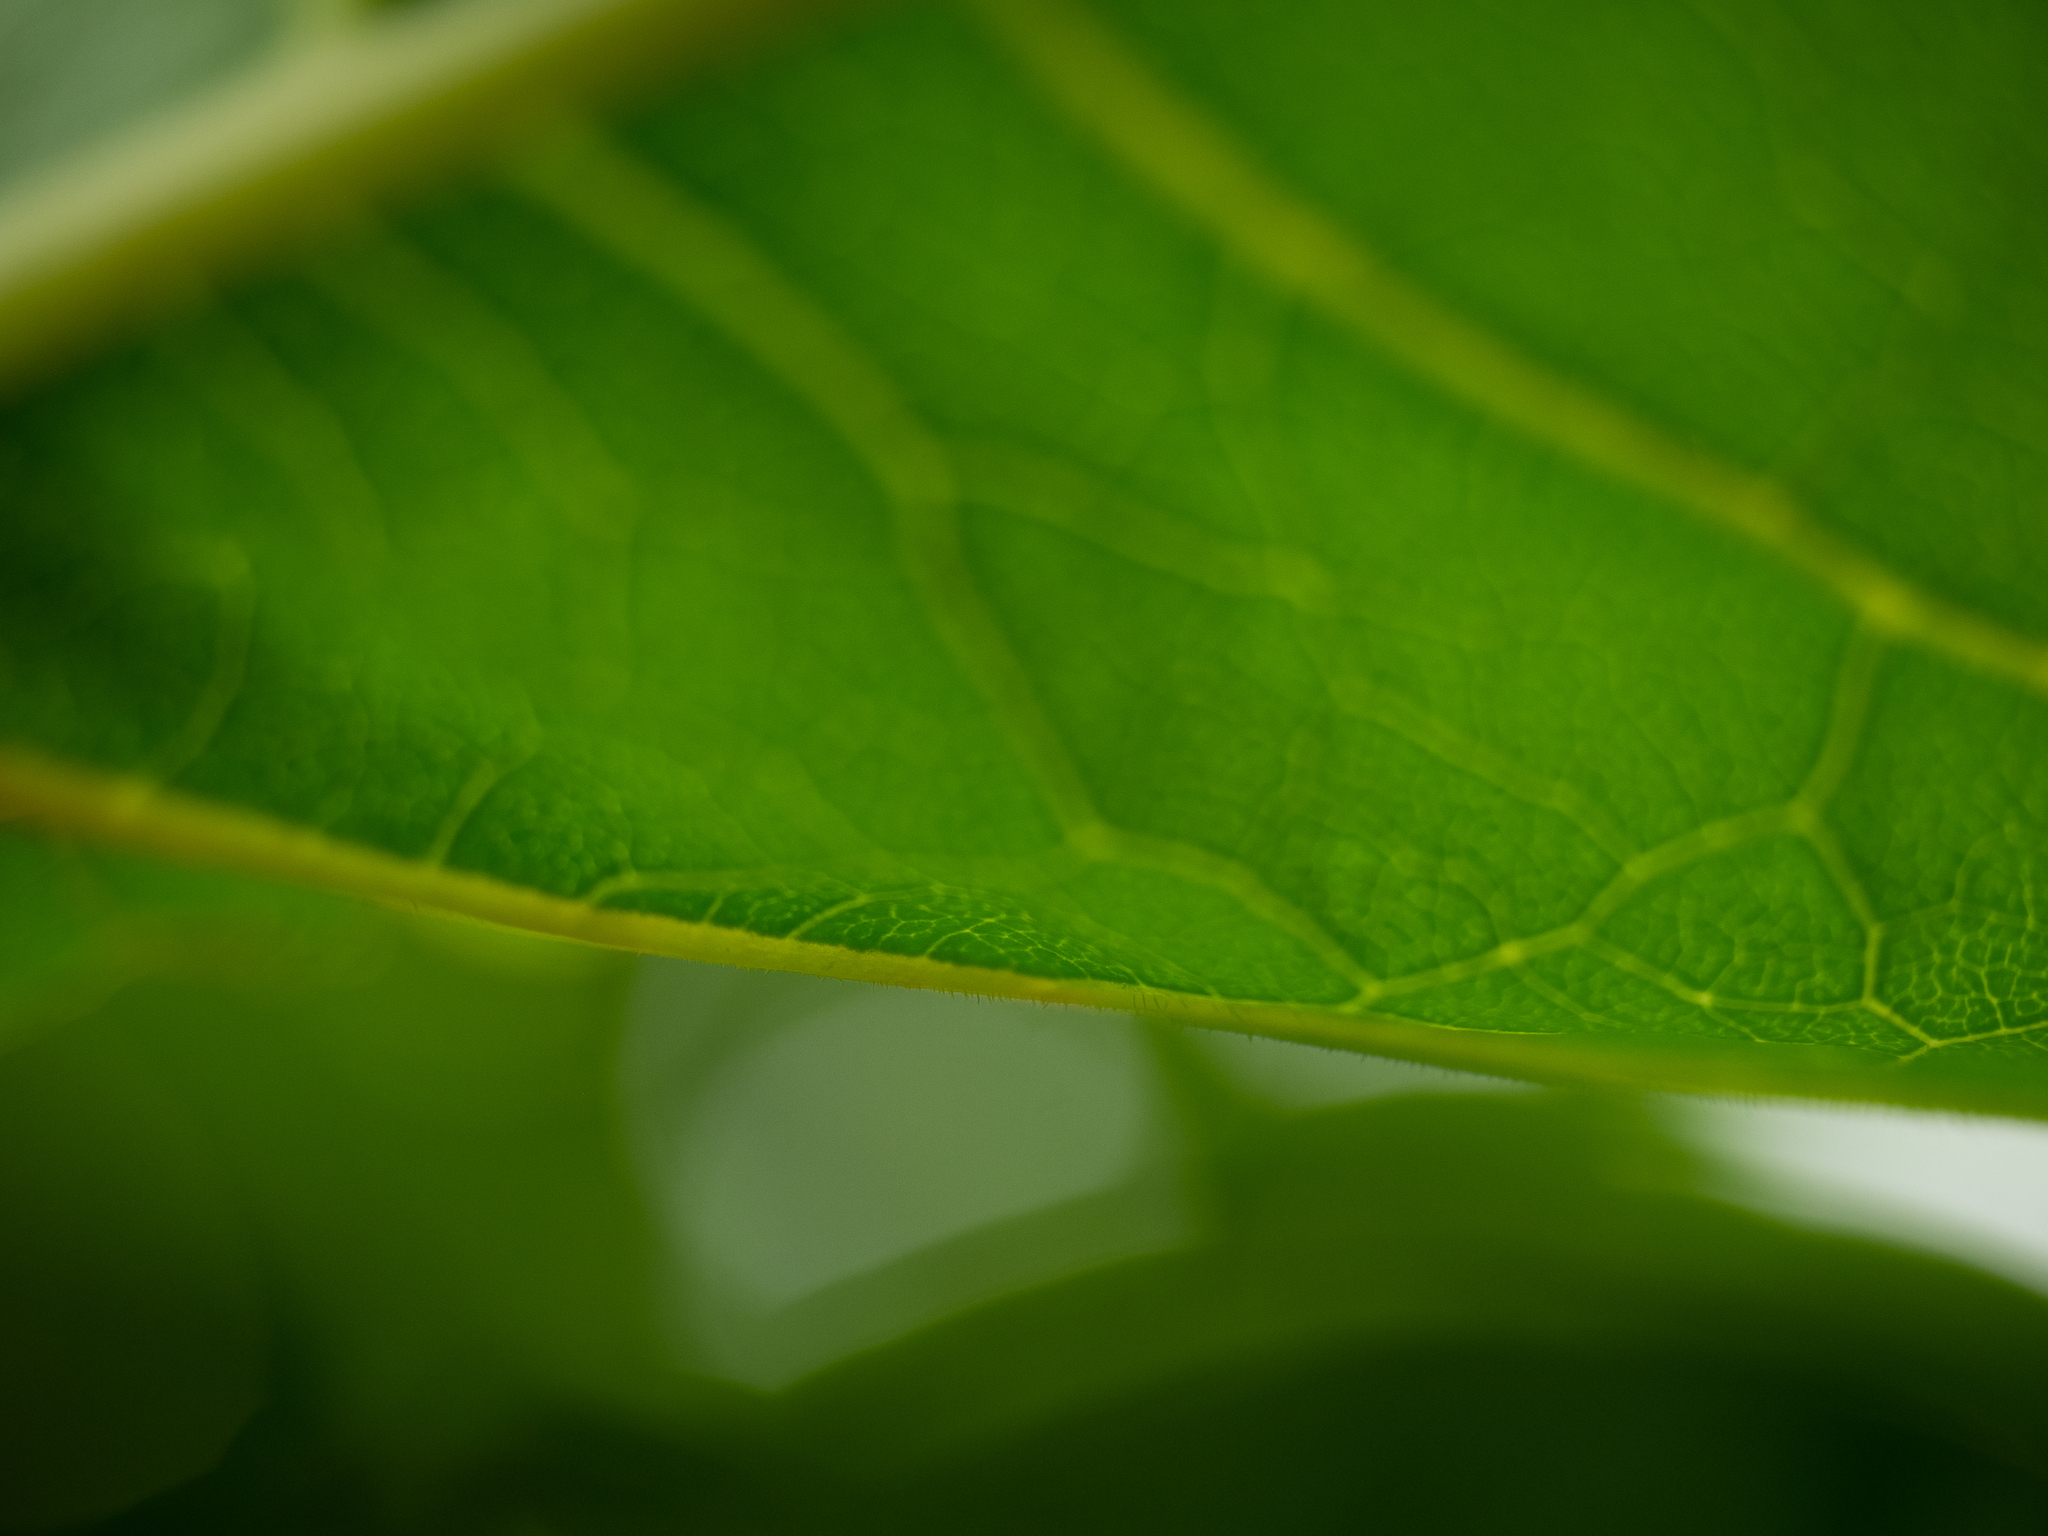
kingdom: Plantae
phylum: Tracheophyta
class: Magnoliopsida
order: Caryophyllales
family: Polygonaceae
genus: Reynoutria
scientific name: Reynoutria bohemica
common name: Bohemian knotweed
